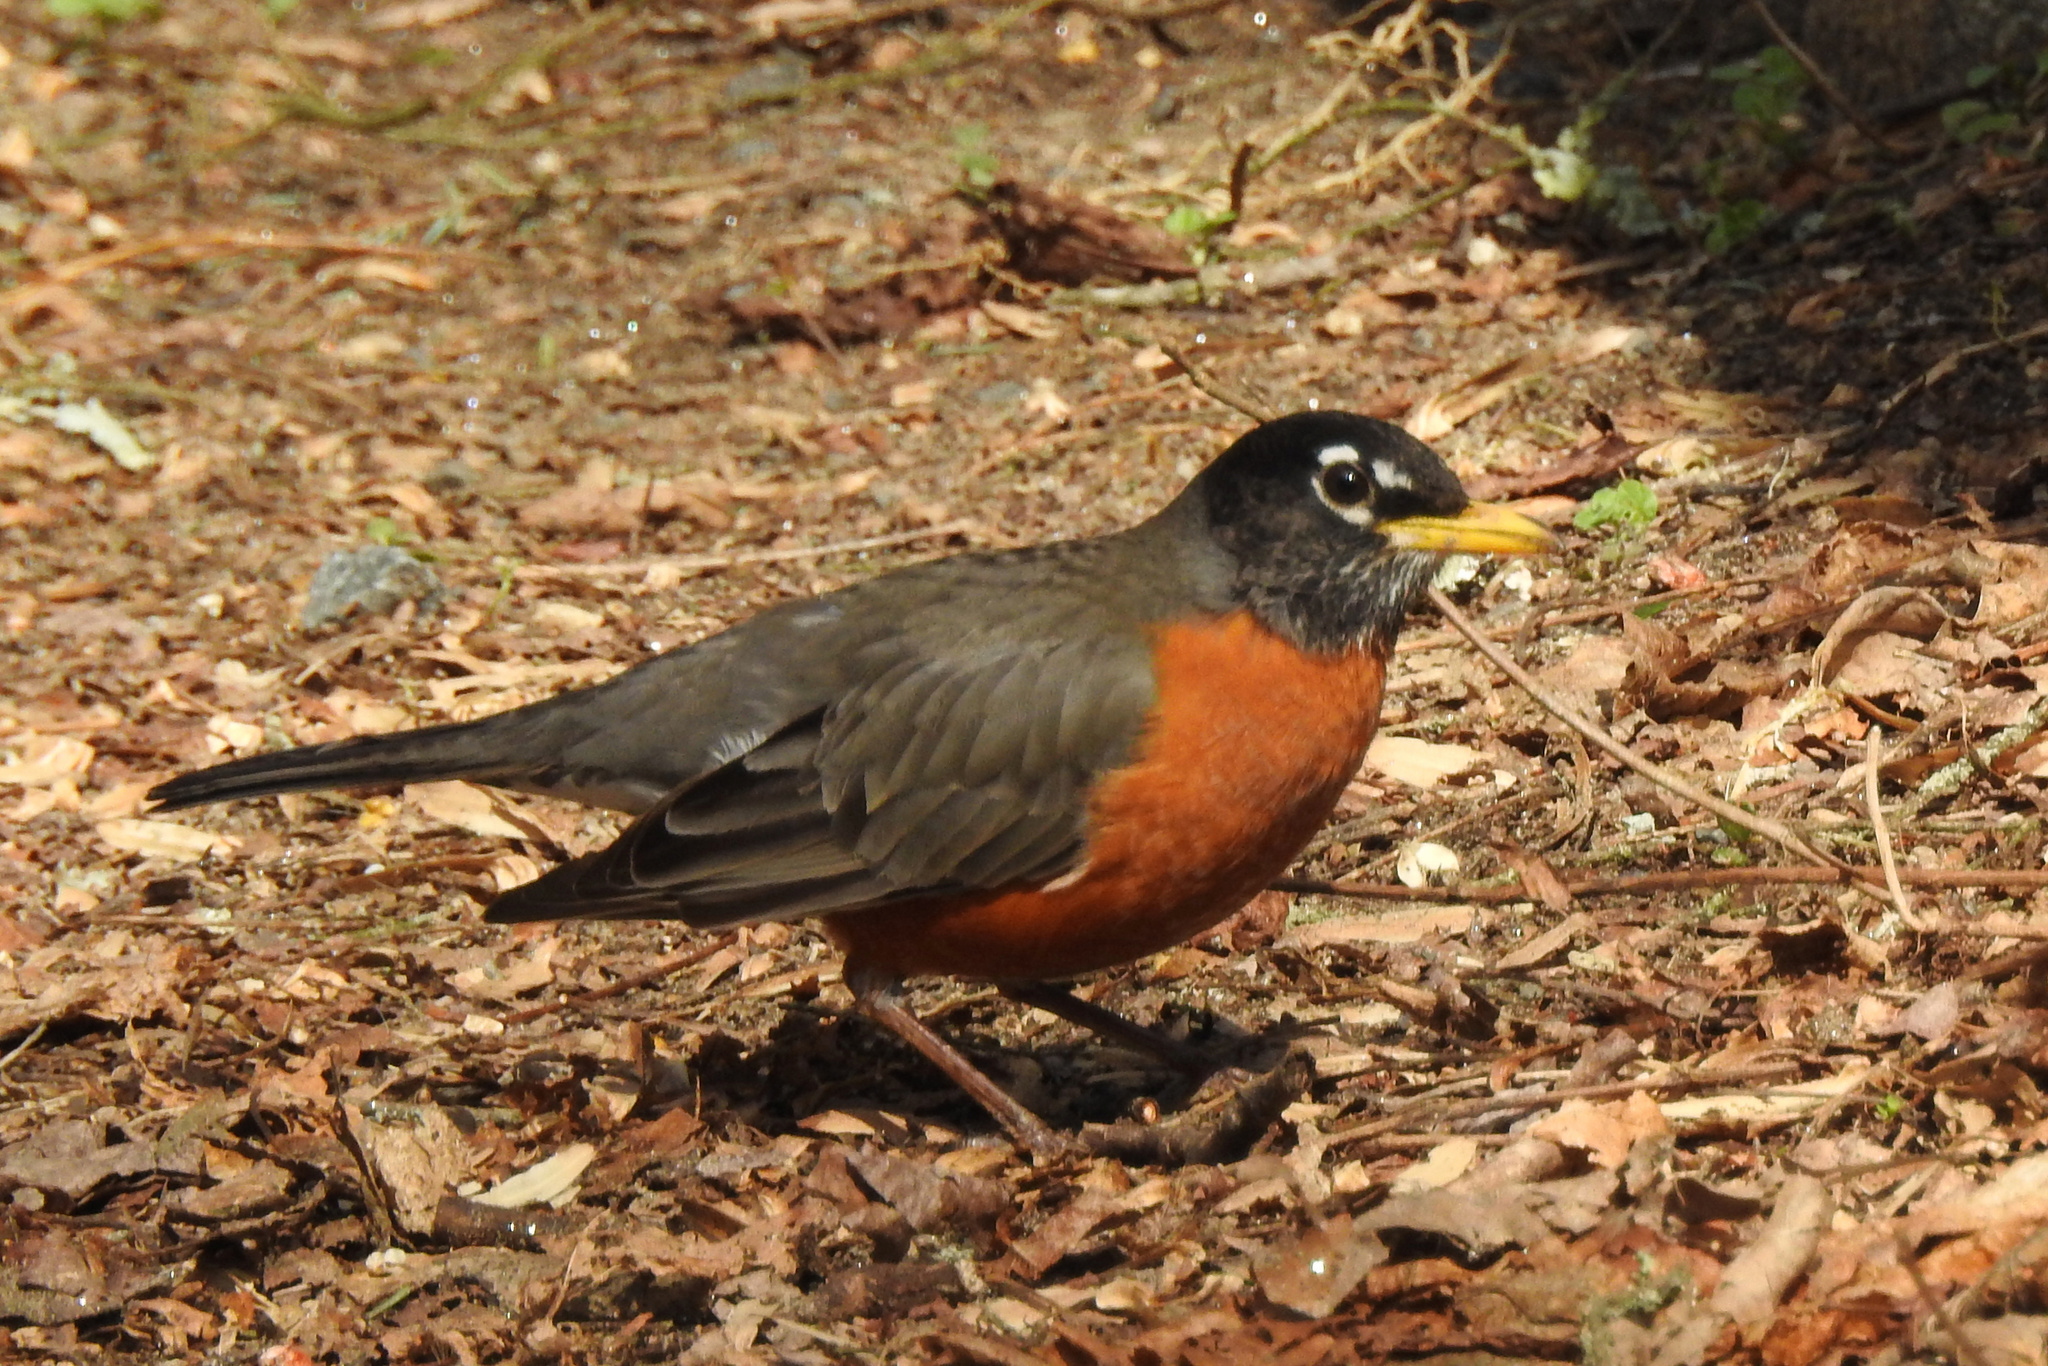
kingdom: Animalia
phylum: Chordata
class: Aves
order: Passeriformes
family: Turdidae
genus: Turdus
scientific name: Turdus migratorius
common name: American robin
